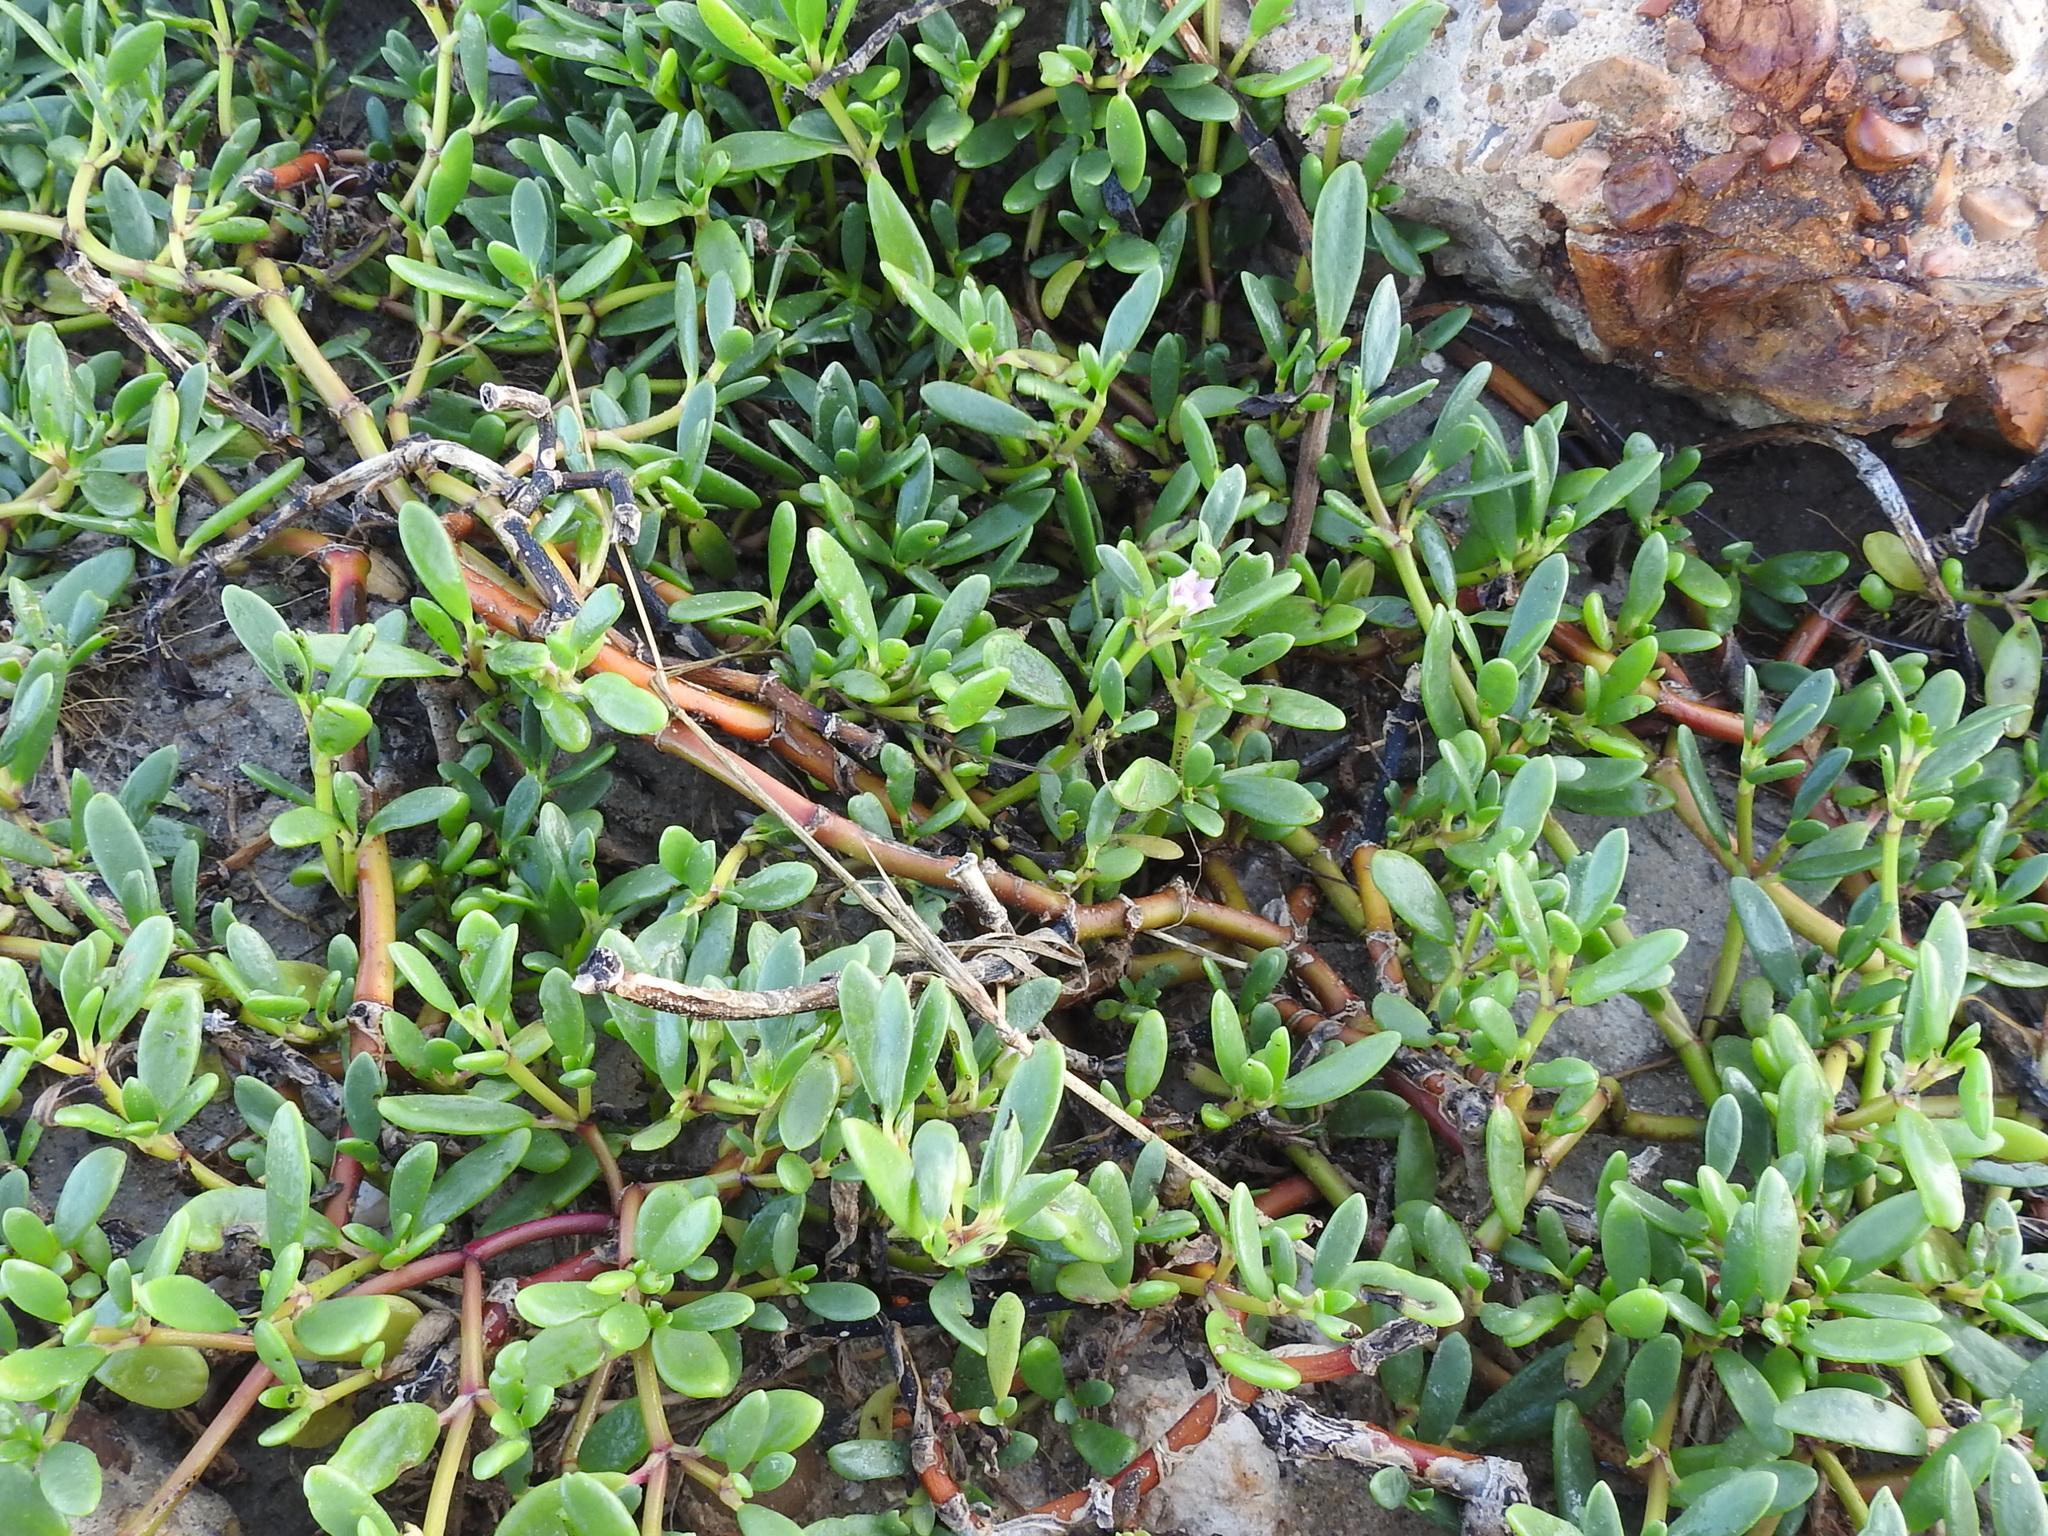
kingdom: Plantae
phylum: Tracheophyta
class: Magnoliopsida
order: Caryophyllales
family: Aizoaceae
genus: Sesuvium
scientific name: Sesuvium portulacastrum
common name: Sea-purslane
